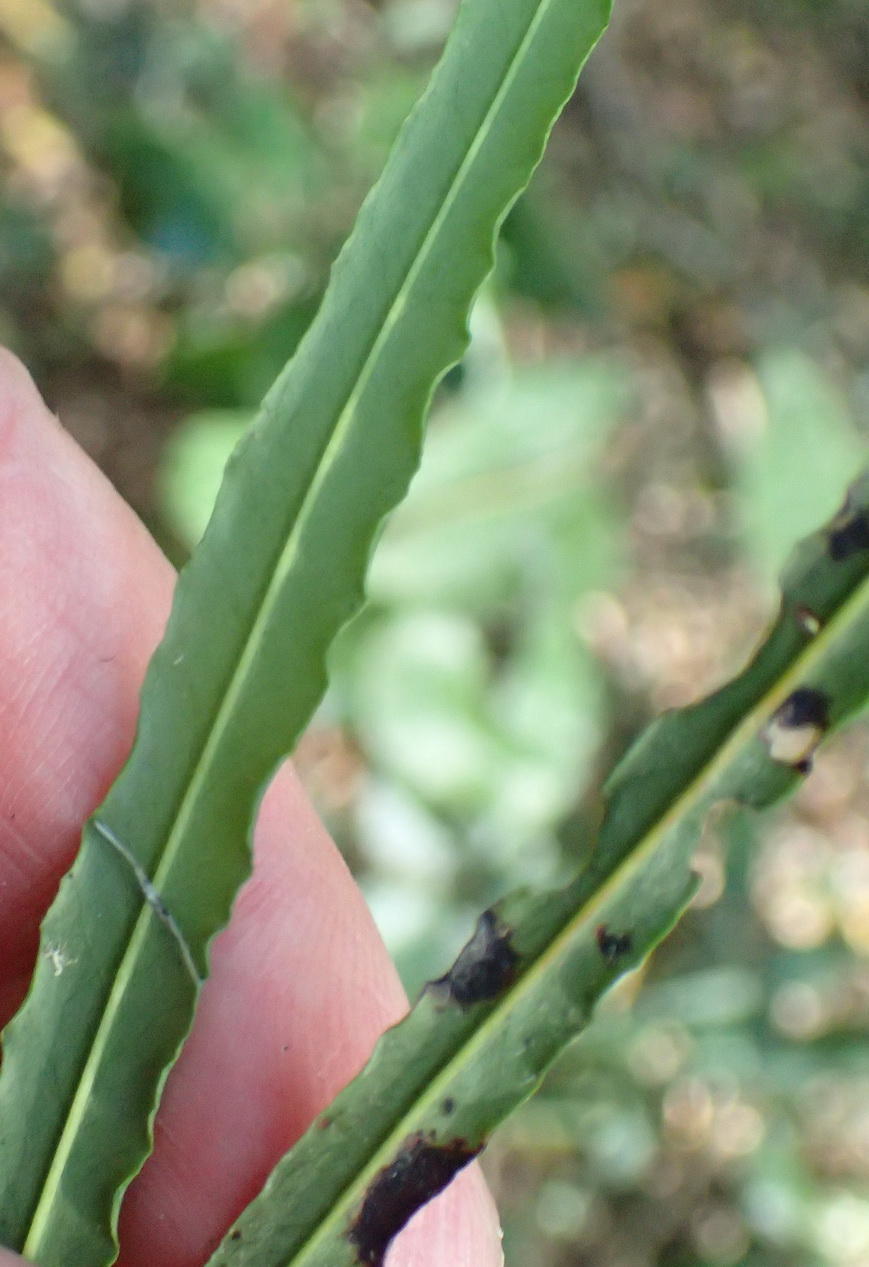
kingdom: Plantae
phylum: Tracheophyta
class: Magnoliopsida
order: Proteales
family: Proteaceae
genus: Faurea
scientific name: Faurea macnaughtonii
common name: Egossa beech
